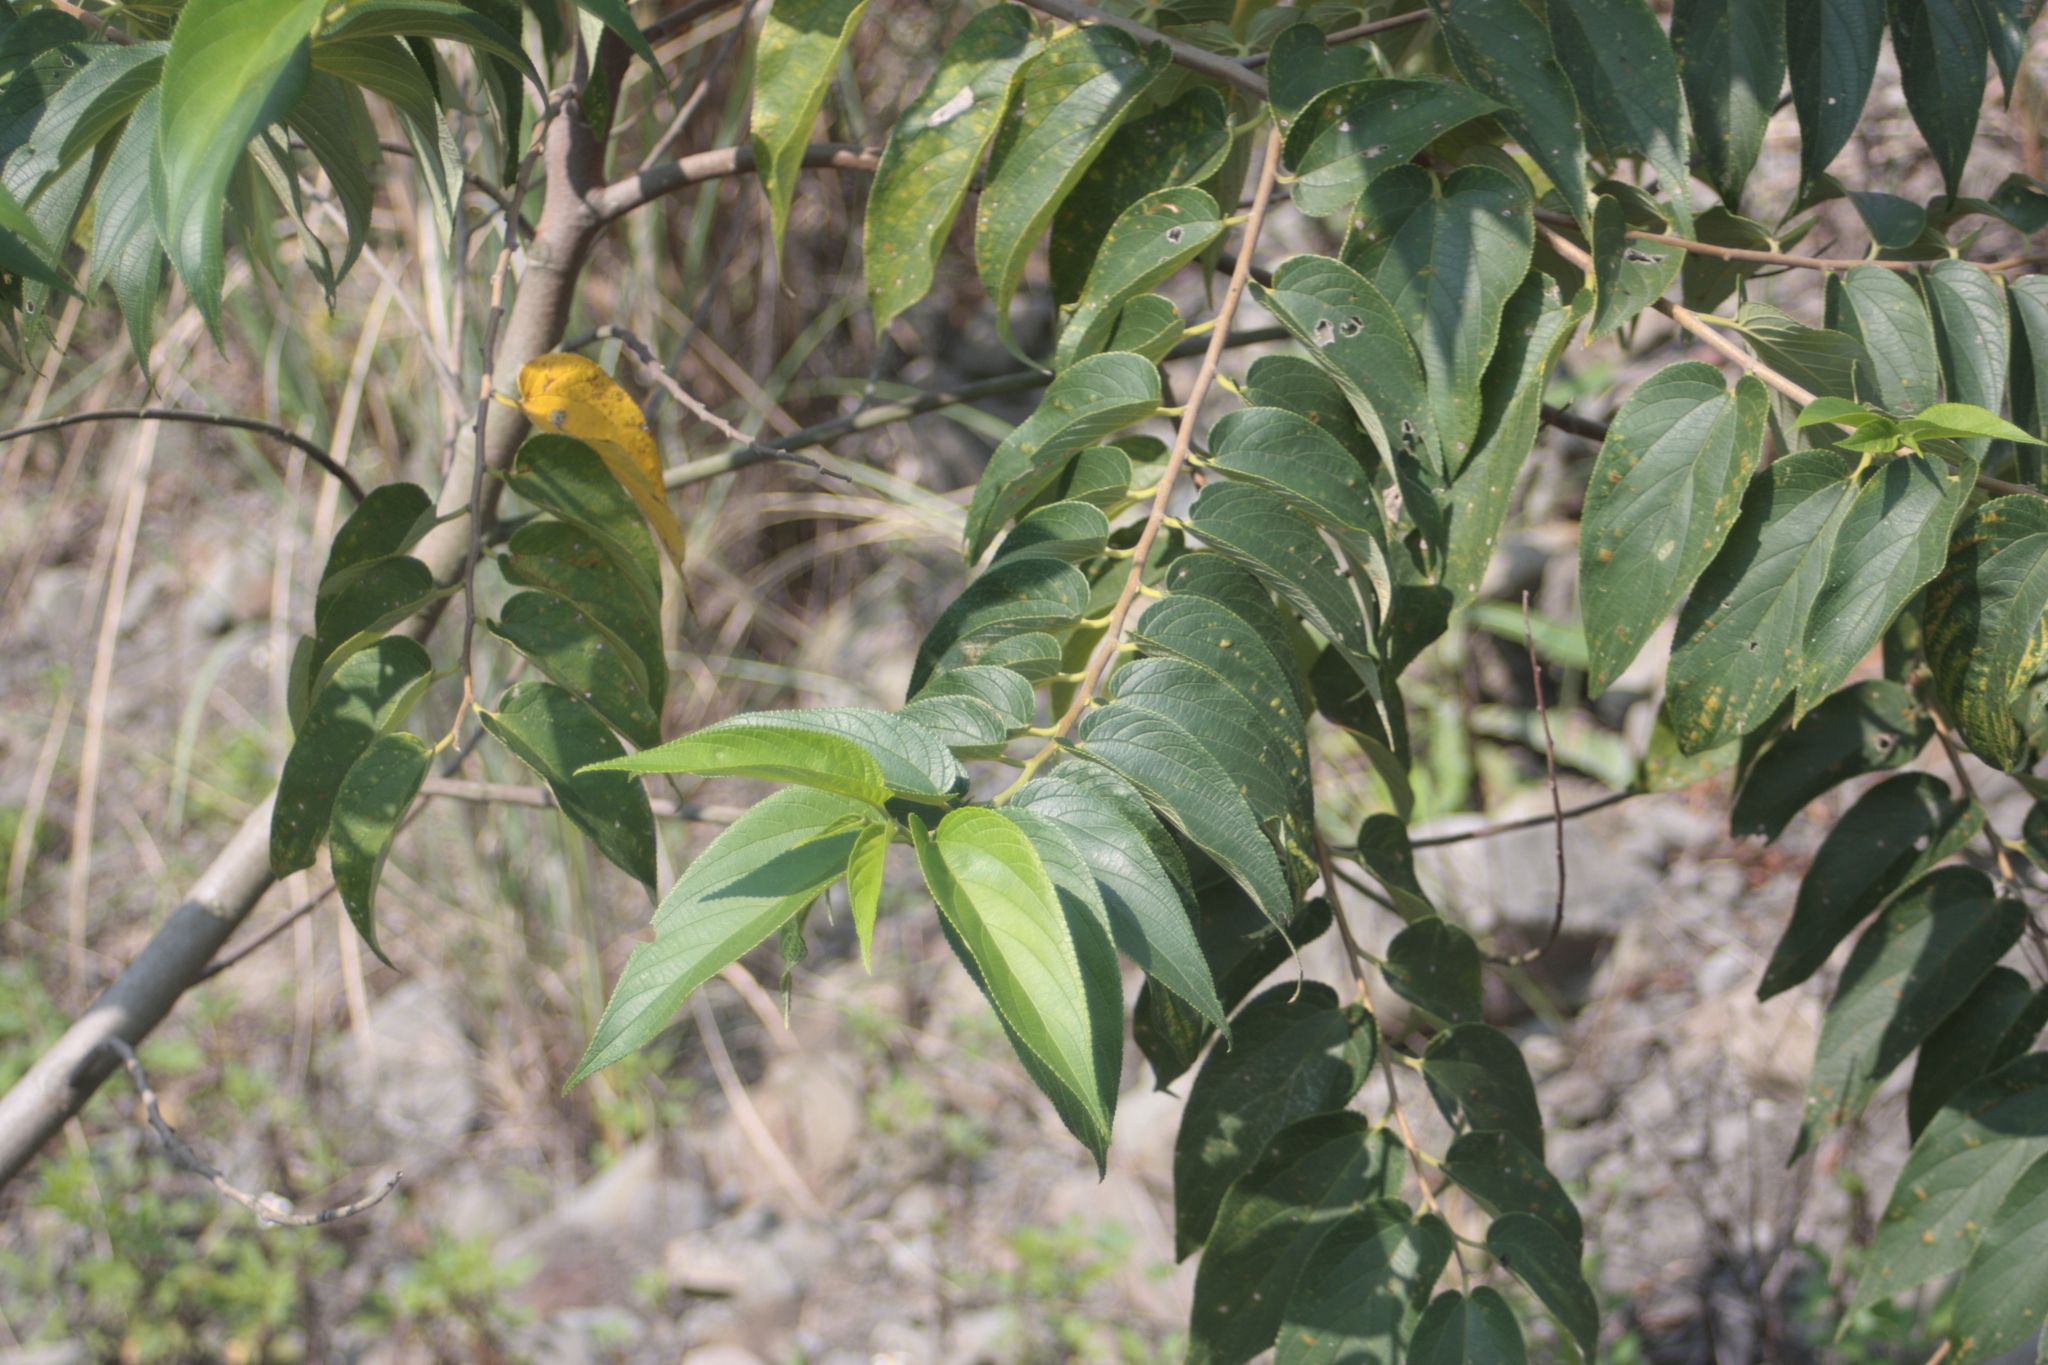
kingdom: Plantae
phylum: Tracheophyta
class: Magnoliopsida
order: Rosales
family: Cannabaceae
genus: Trema
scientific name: Trema orientale
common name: Indian charcoal tree
